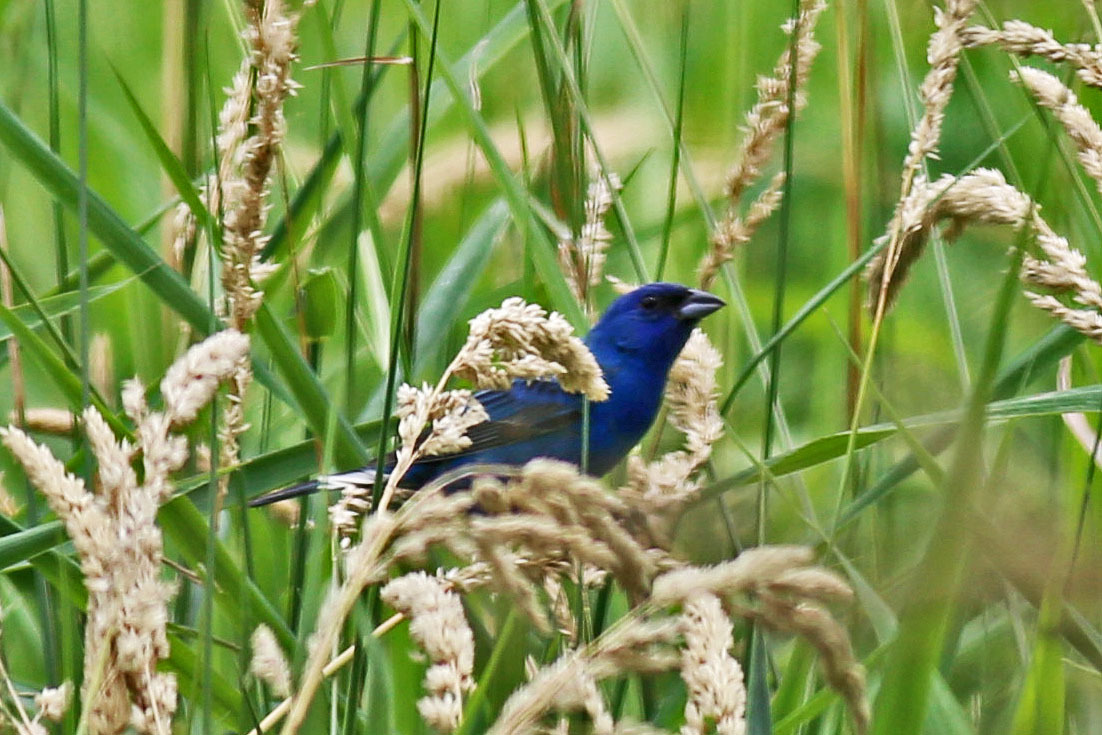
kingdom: Animalia
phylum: Chordata
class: Aves
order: Passeriformes
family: Cardinalidae
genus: Passerina
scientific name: Passerina cyanea
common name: Indigo bunting
